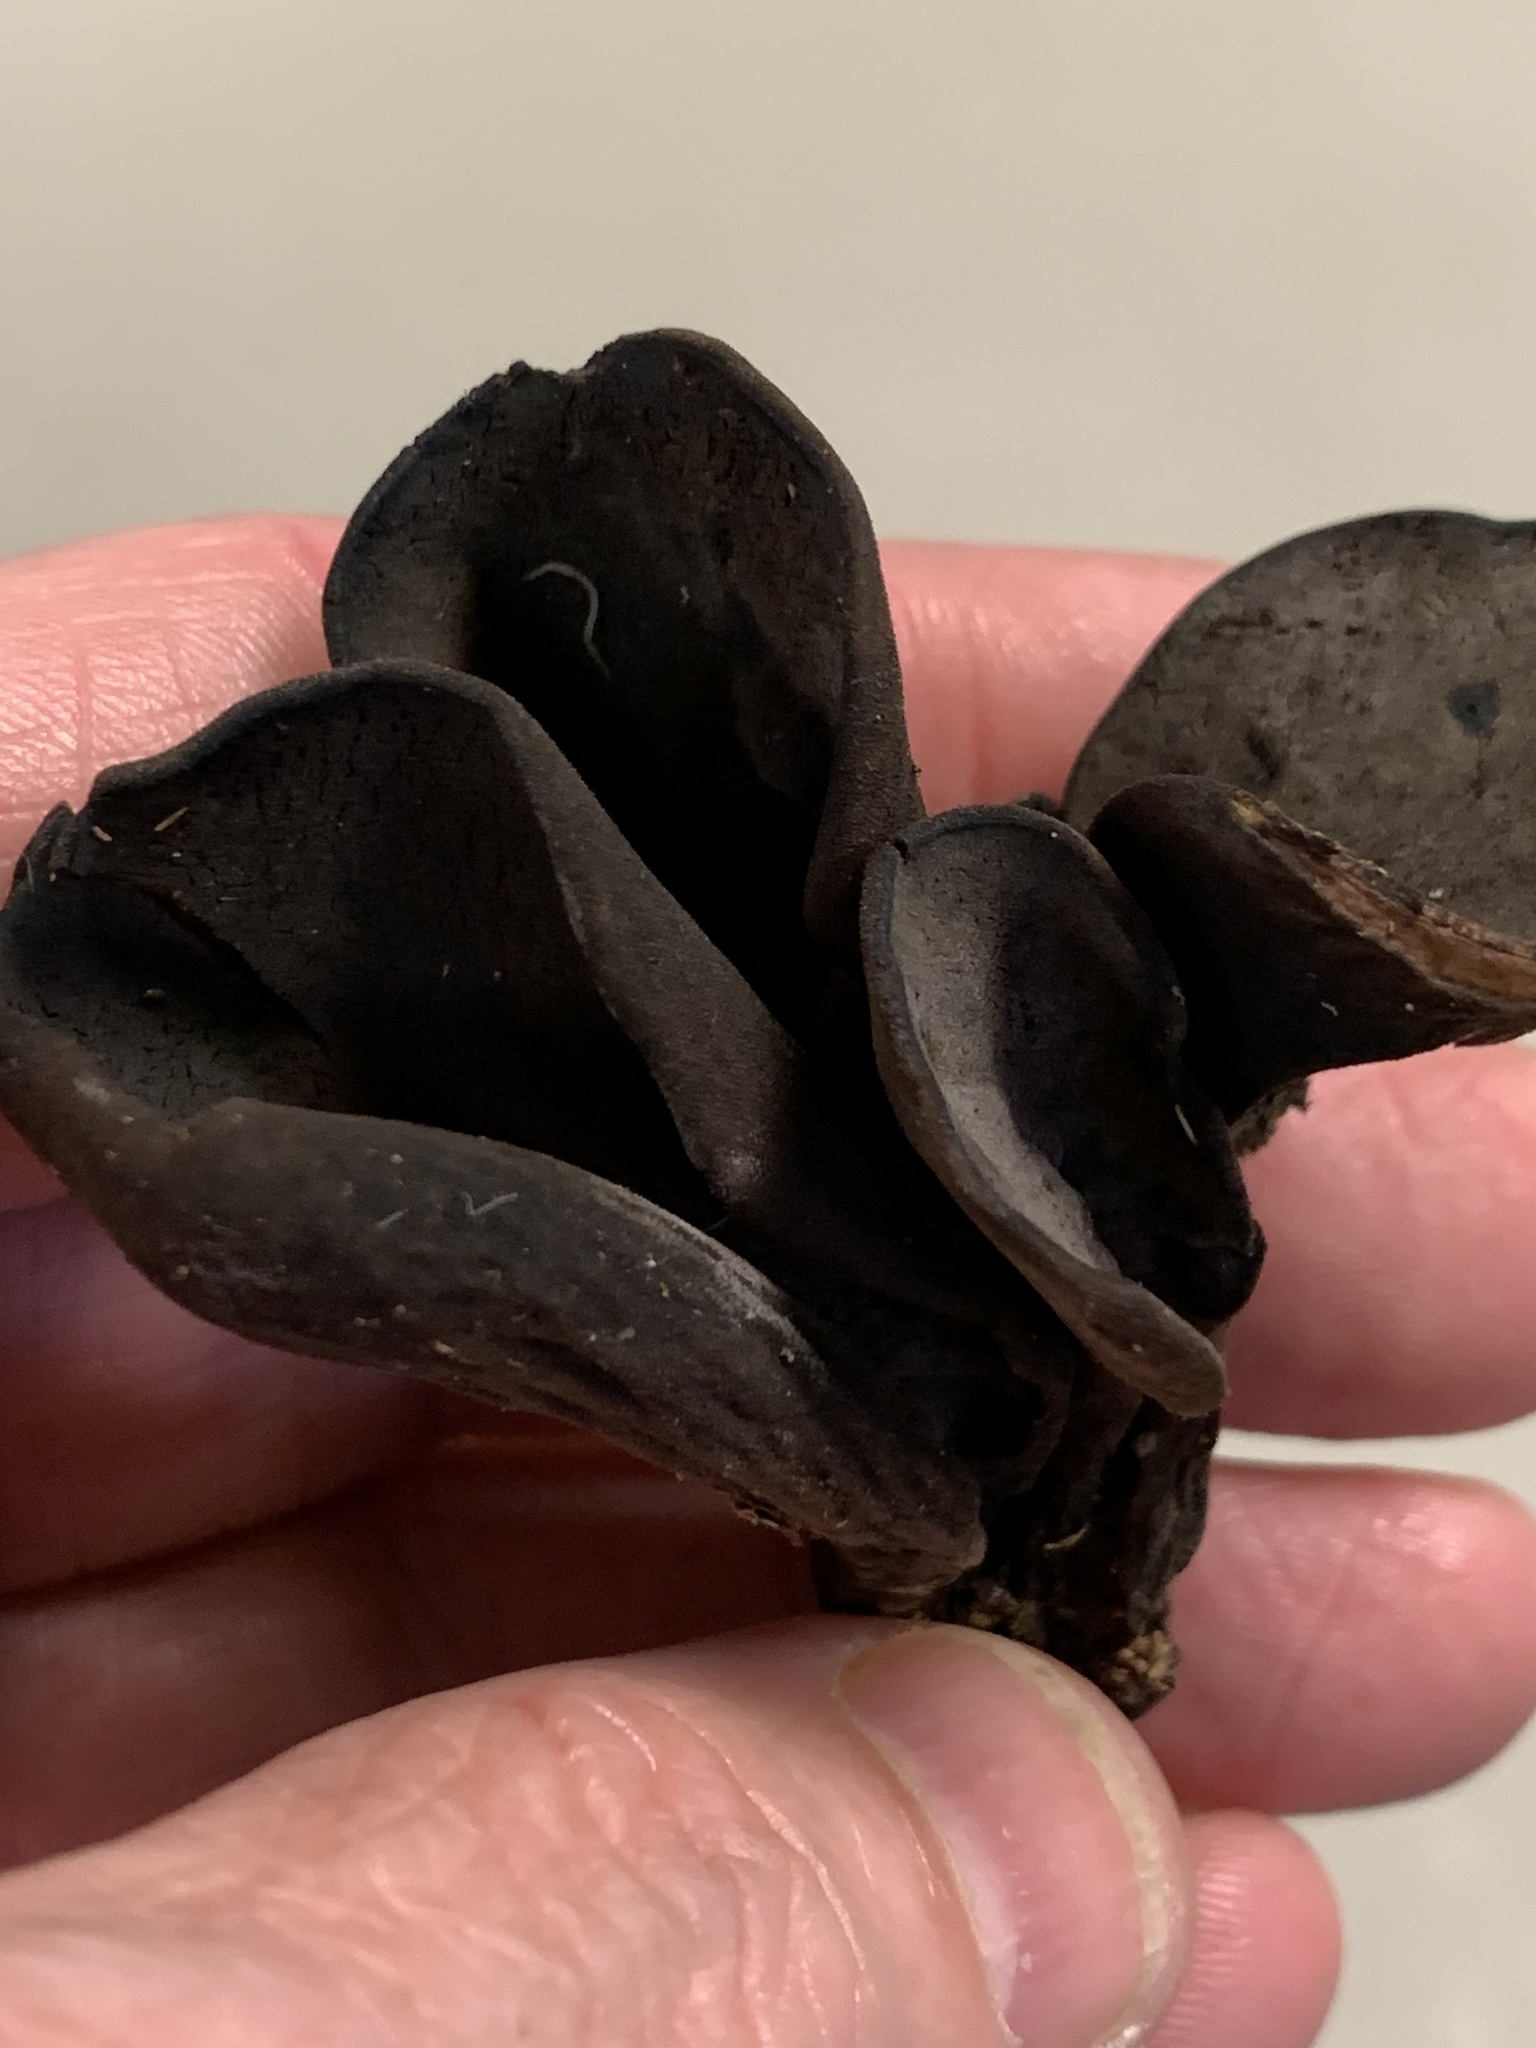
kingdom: Fungi
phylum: Ascomycota
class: Pezizomycetes
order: Pezizales
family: Wynneaceae
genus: Wynnea
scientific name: Wynnea americana
